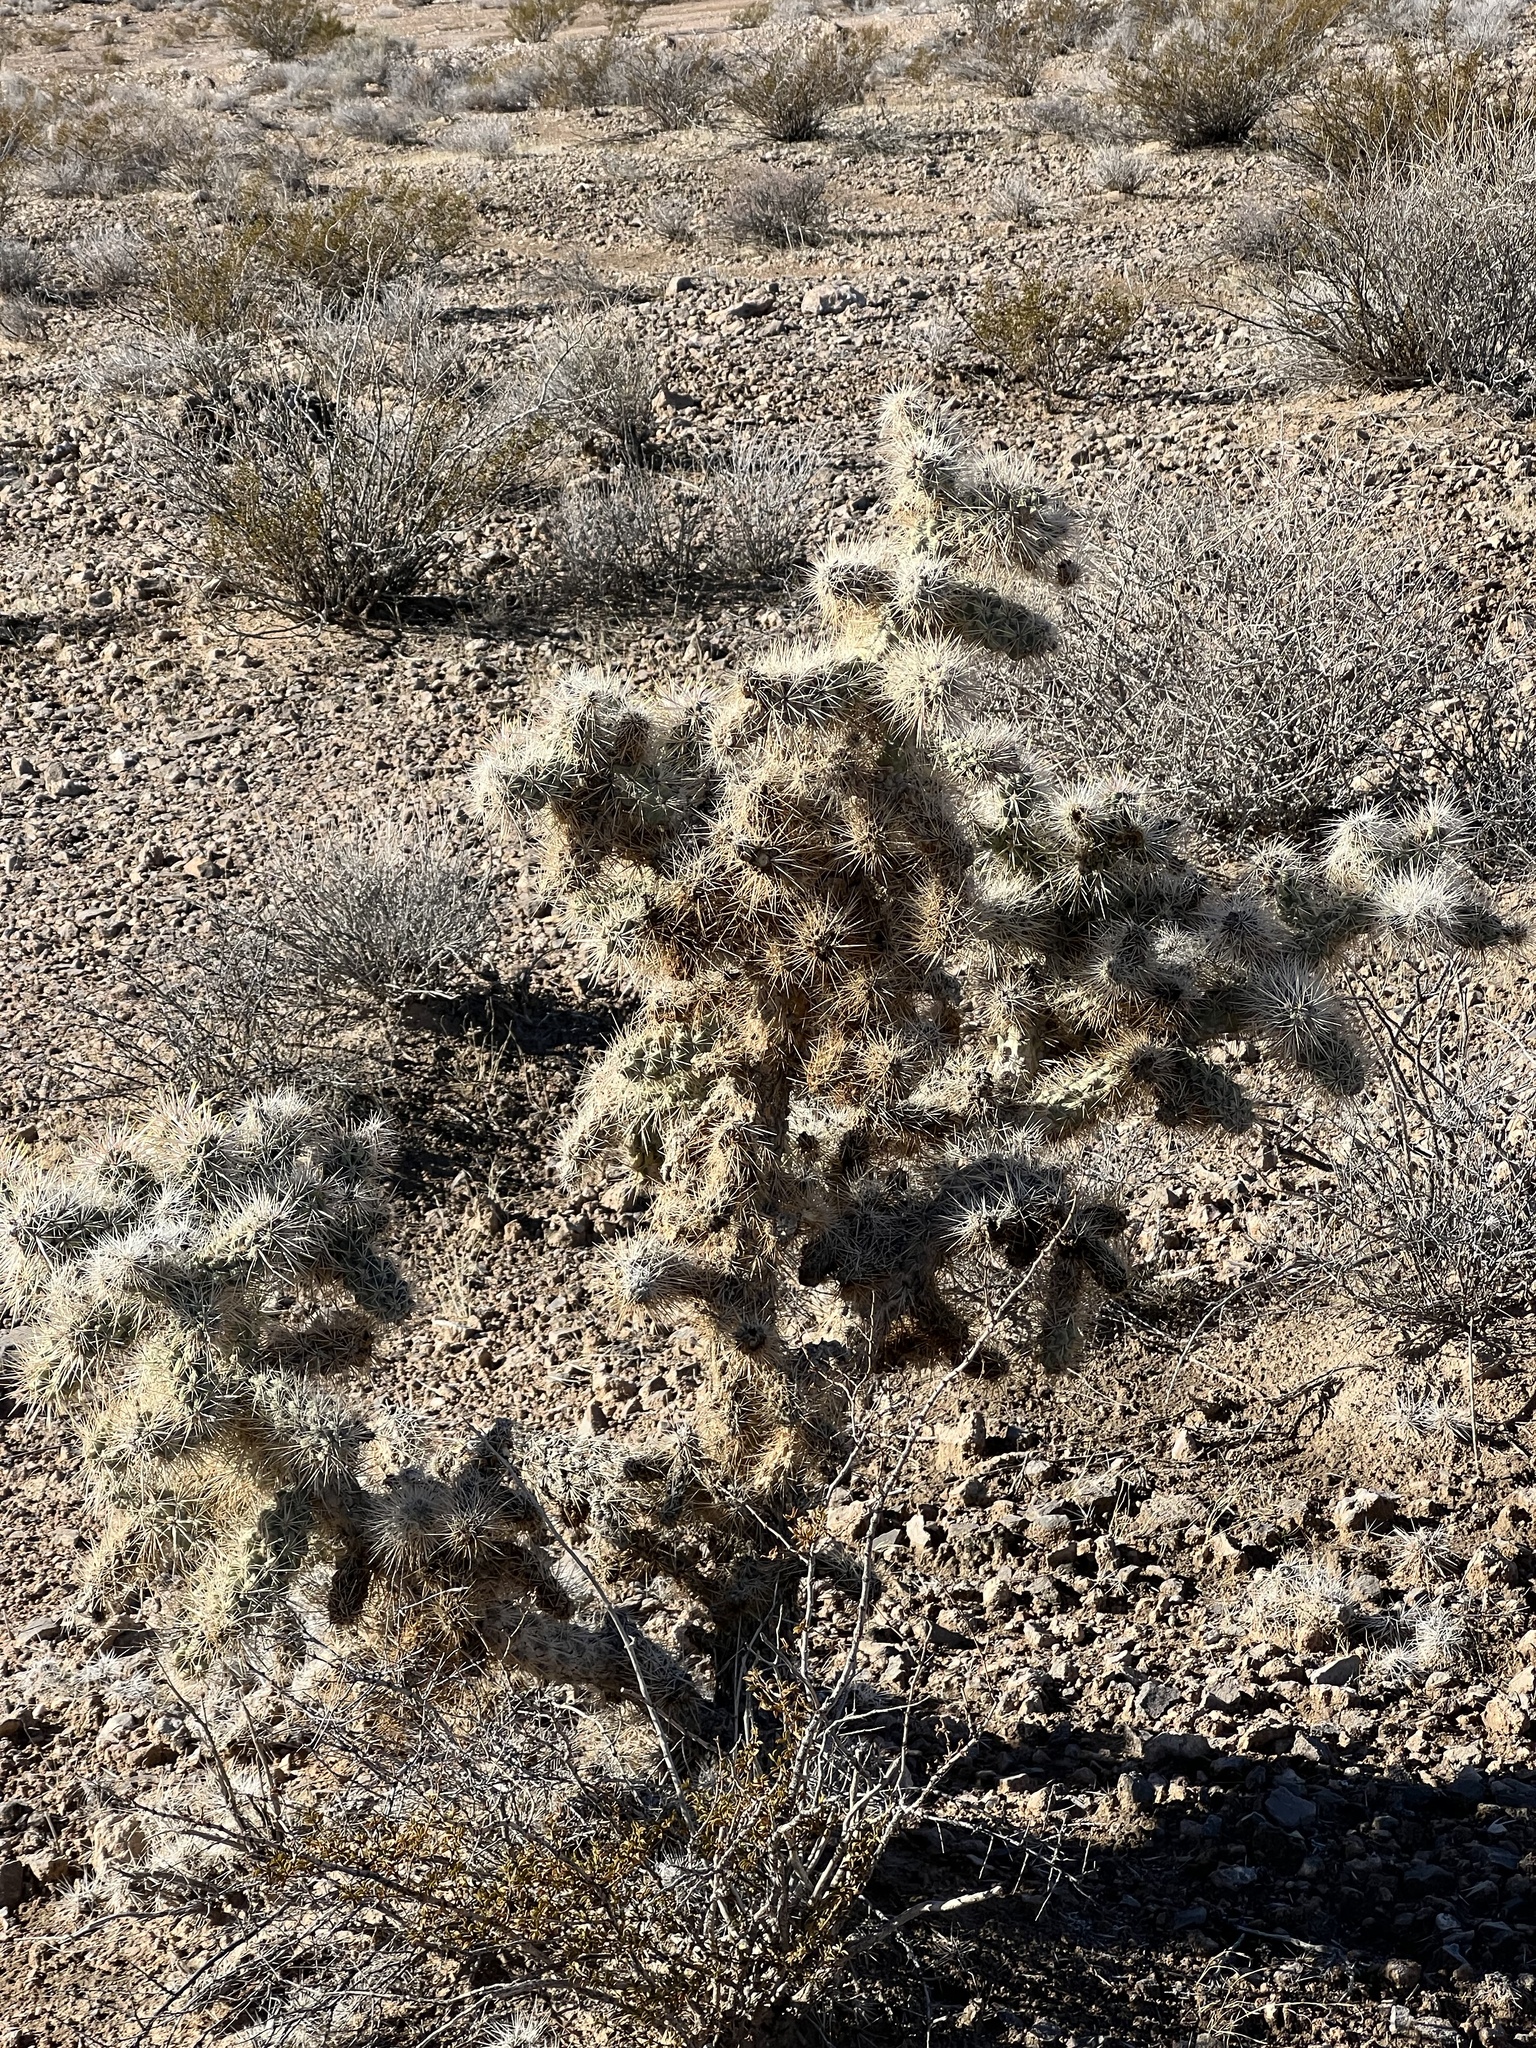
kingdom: Plantae
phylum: Tracheophyta
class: Magnoliopsida
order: Caryophyllales
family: Cactaceae
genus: Cylindropuntia
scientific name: Cylindropuntia echinocarpa
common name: Ground cholla
